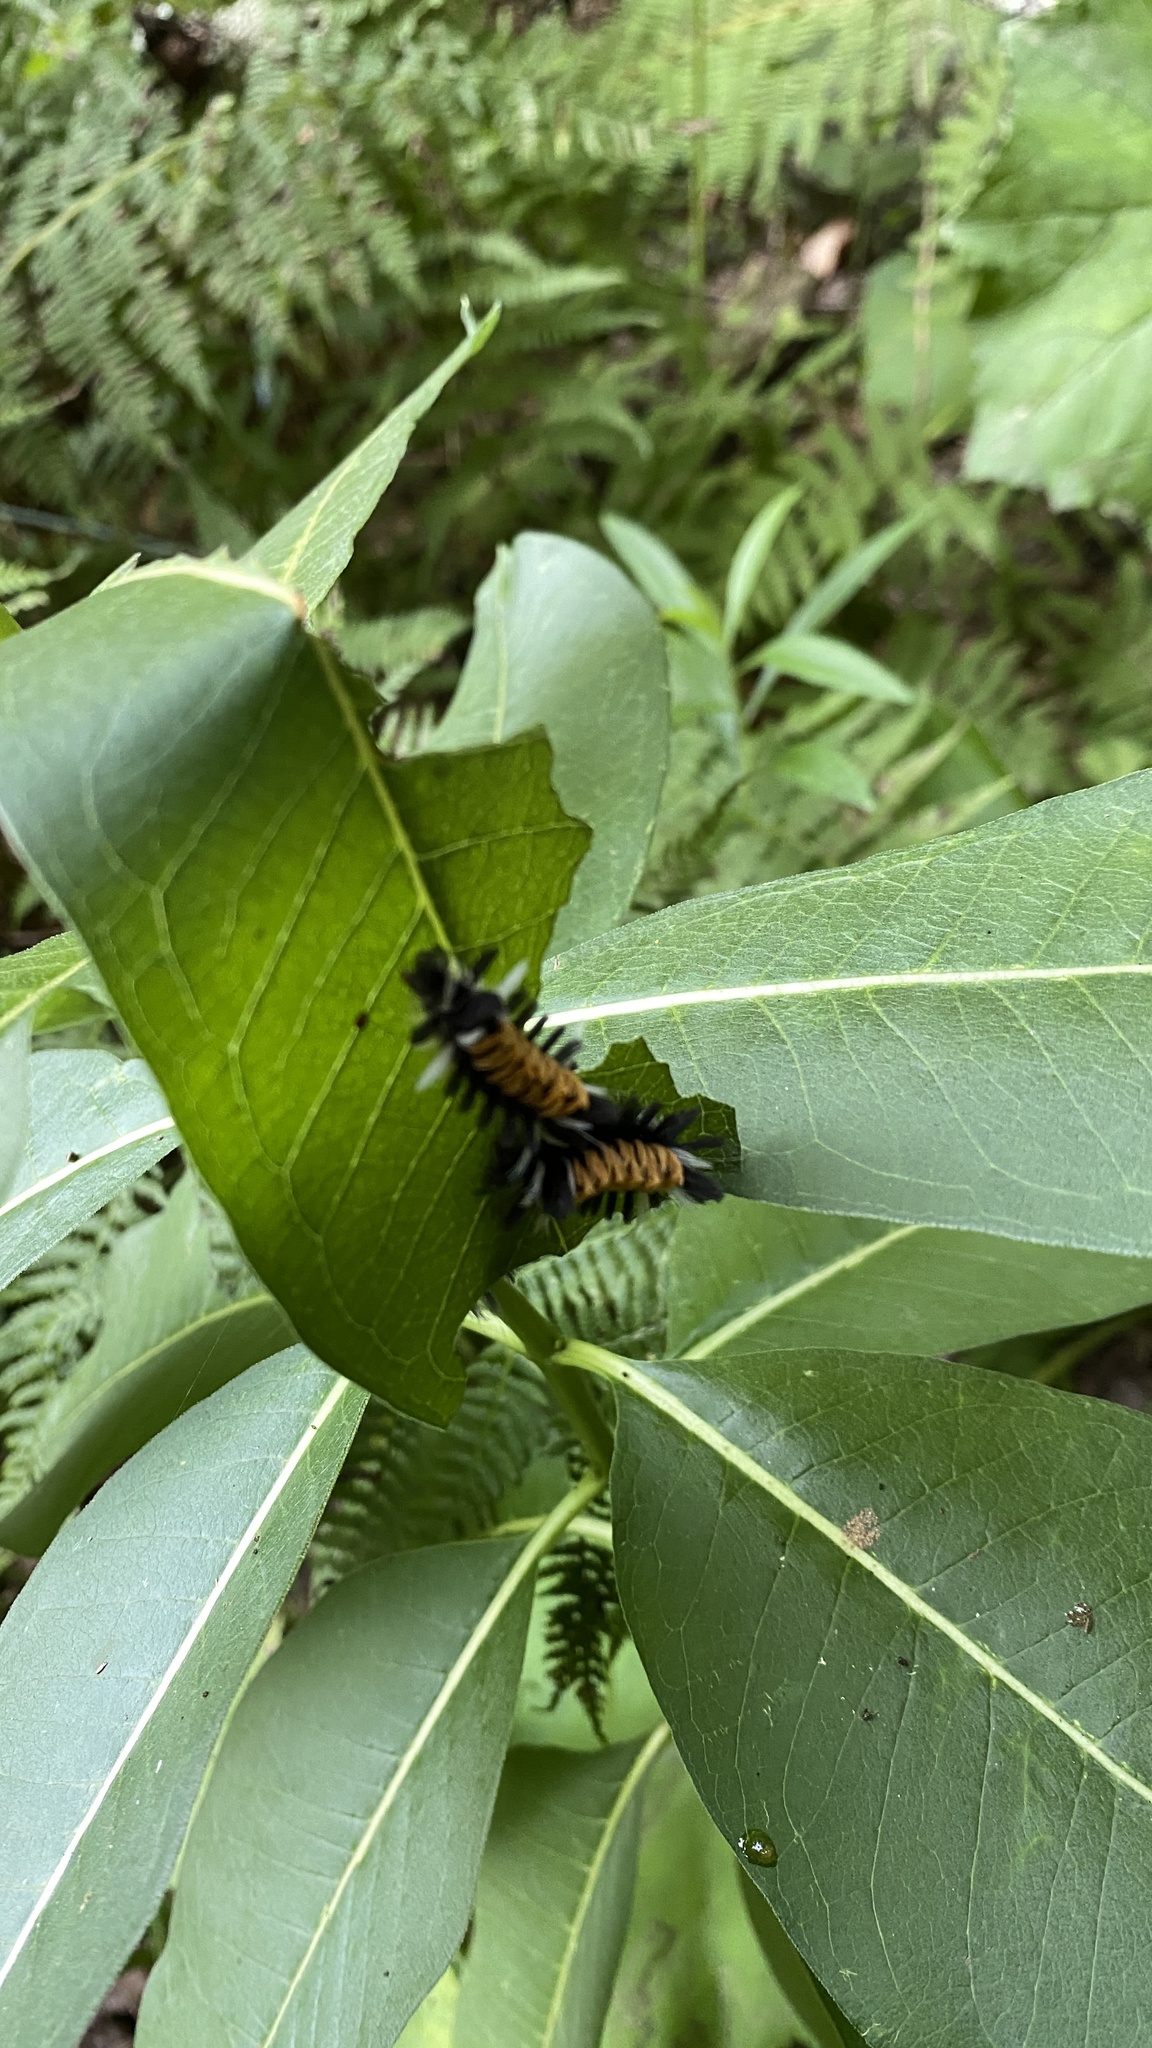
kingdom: Animalia
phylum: Arthropoda
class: Insecta
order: Lepidoptera
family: Erebidae
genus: Euchaetes
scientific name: Euchaetes egle
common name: Milkweed tussock moth
